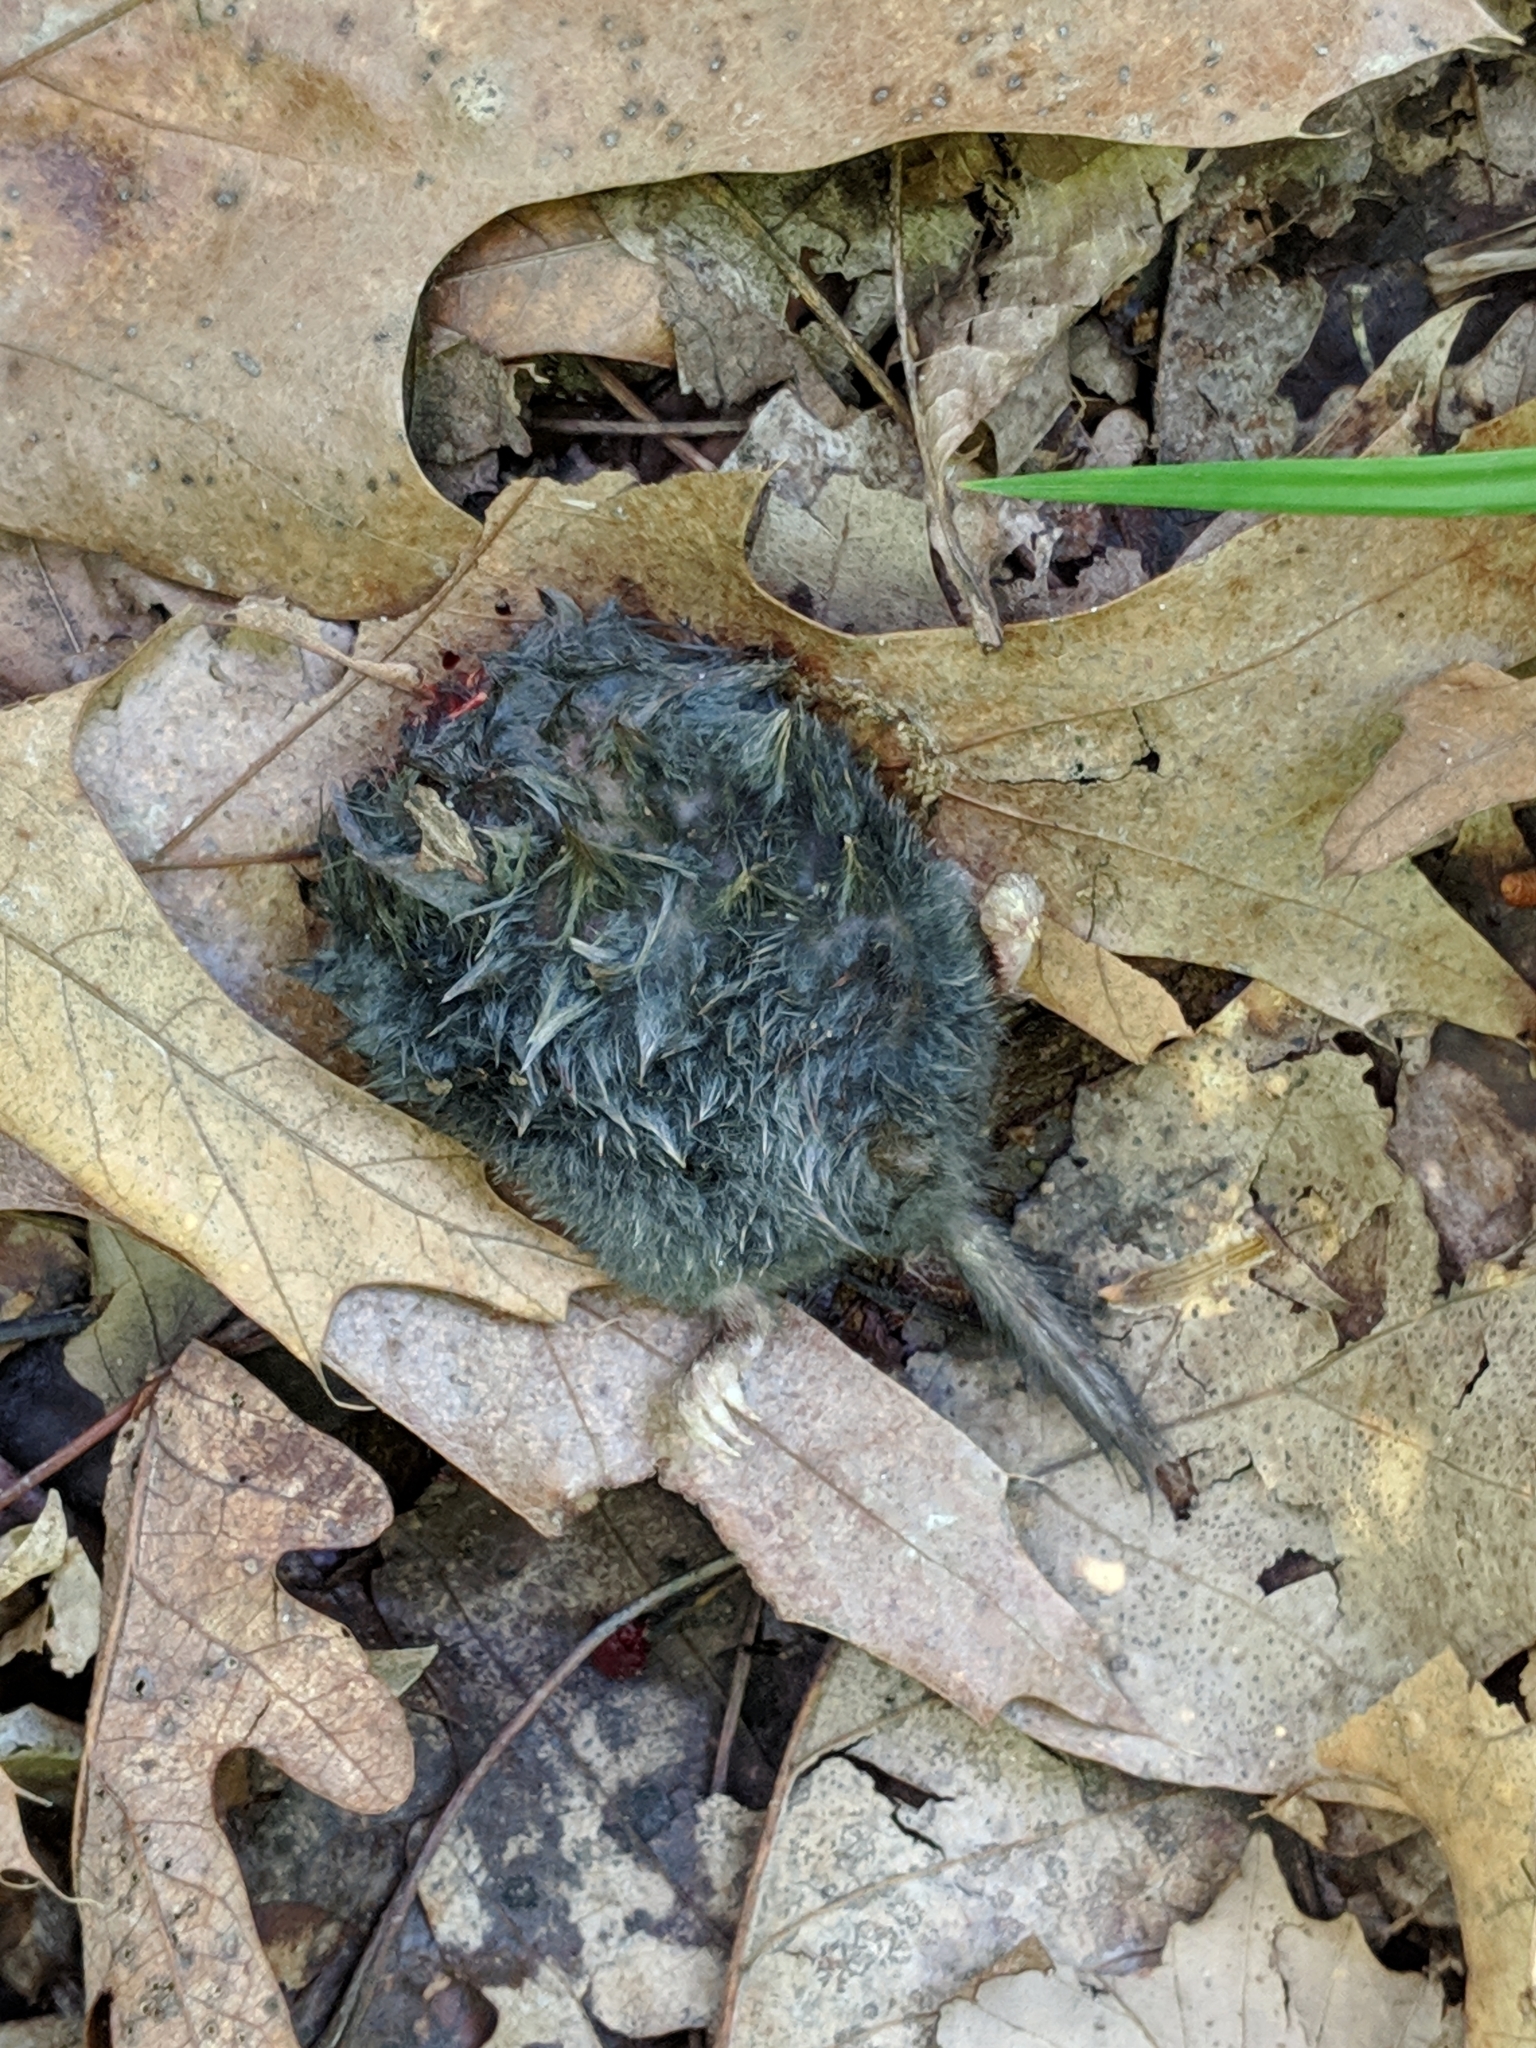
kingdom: Animalia
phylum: Chordata
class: Mammalia
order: Soricomorpha
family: Soricidae
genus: Blarina
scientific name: Blarina brevicauda
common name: Northern short-tailed shrew
